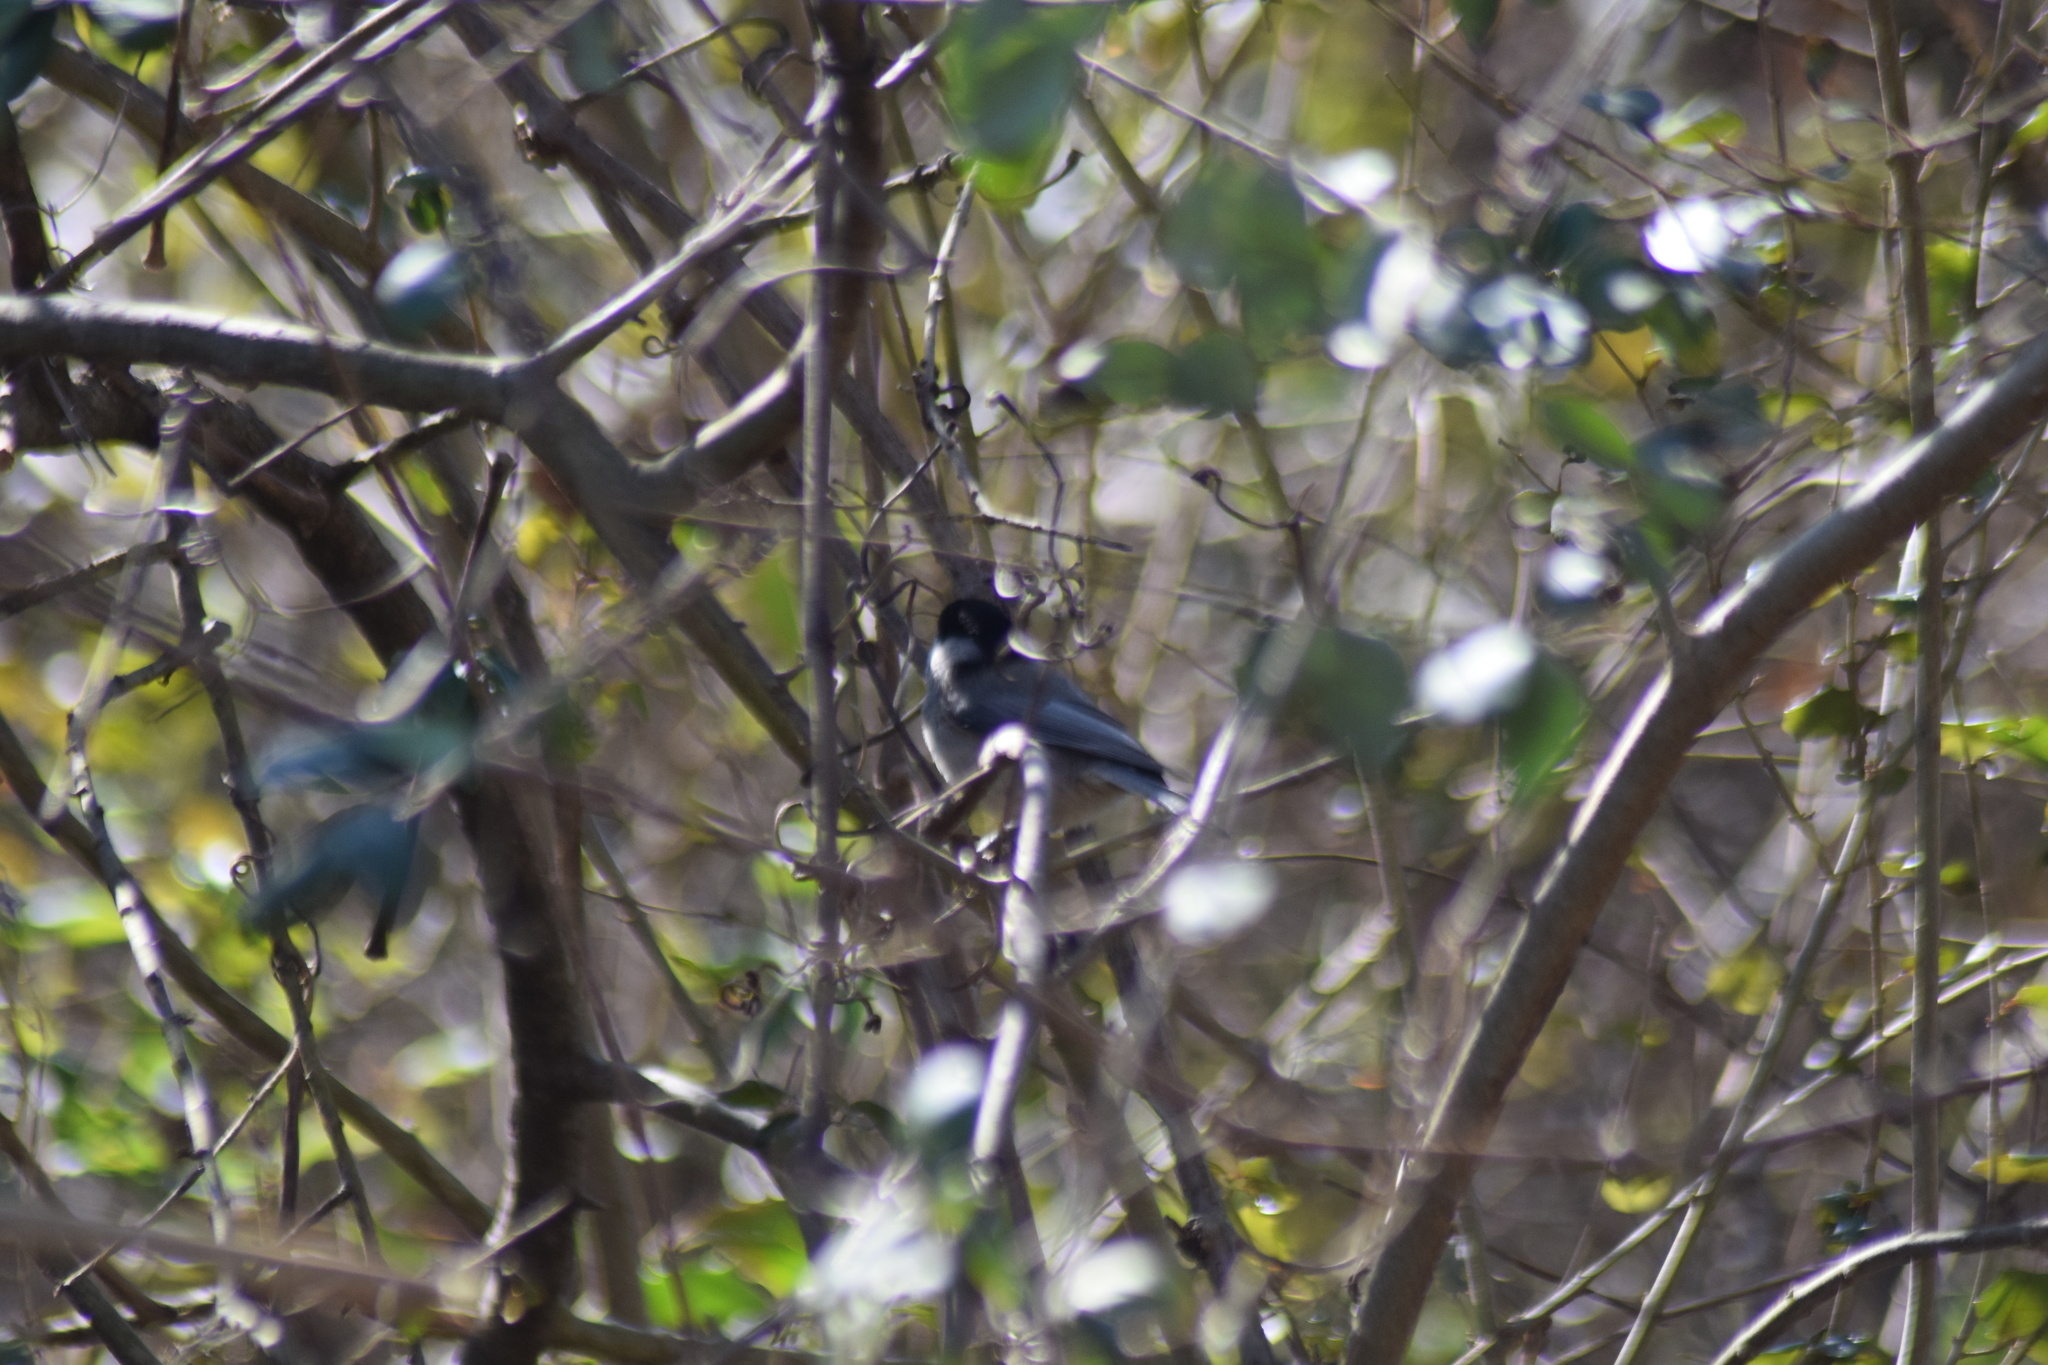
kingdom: Animalia
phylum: Chordata
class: Aves
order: Passeriformes
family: Paridae
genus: Poecile
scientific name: Poecile carolinensis
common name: Carolina chickadee
